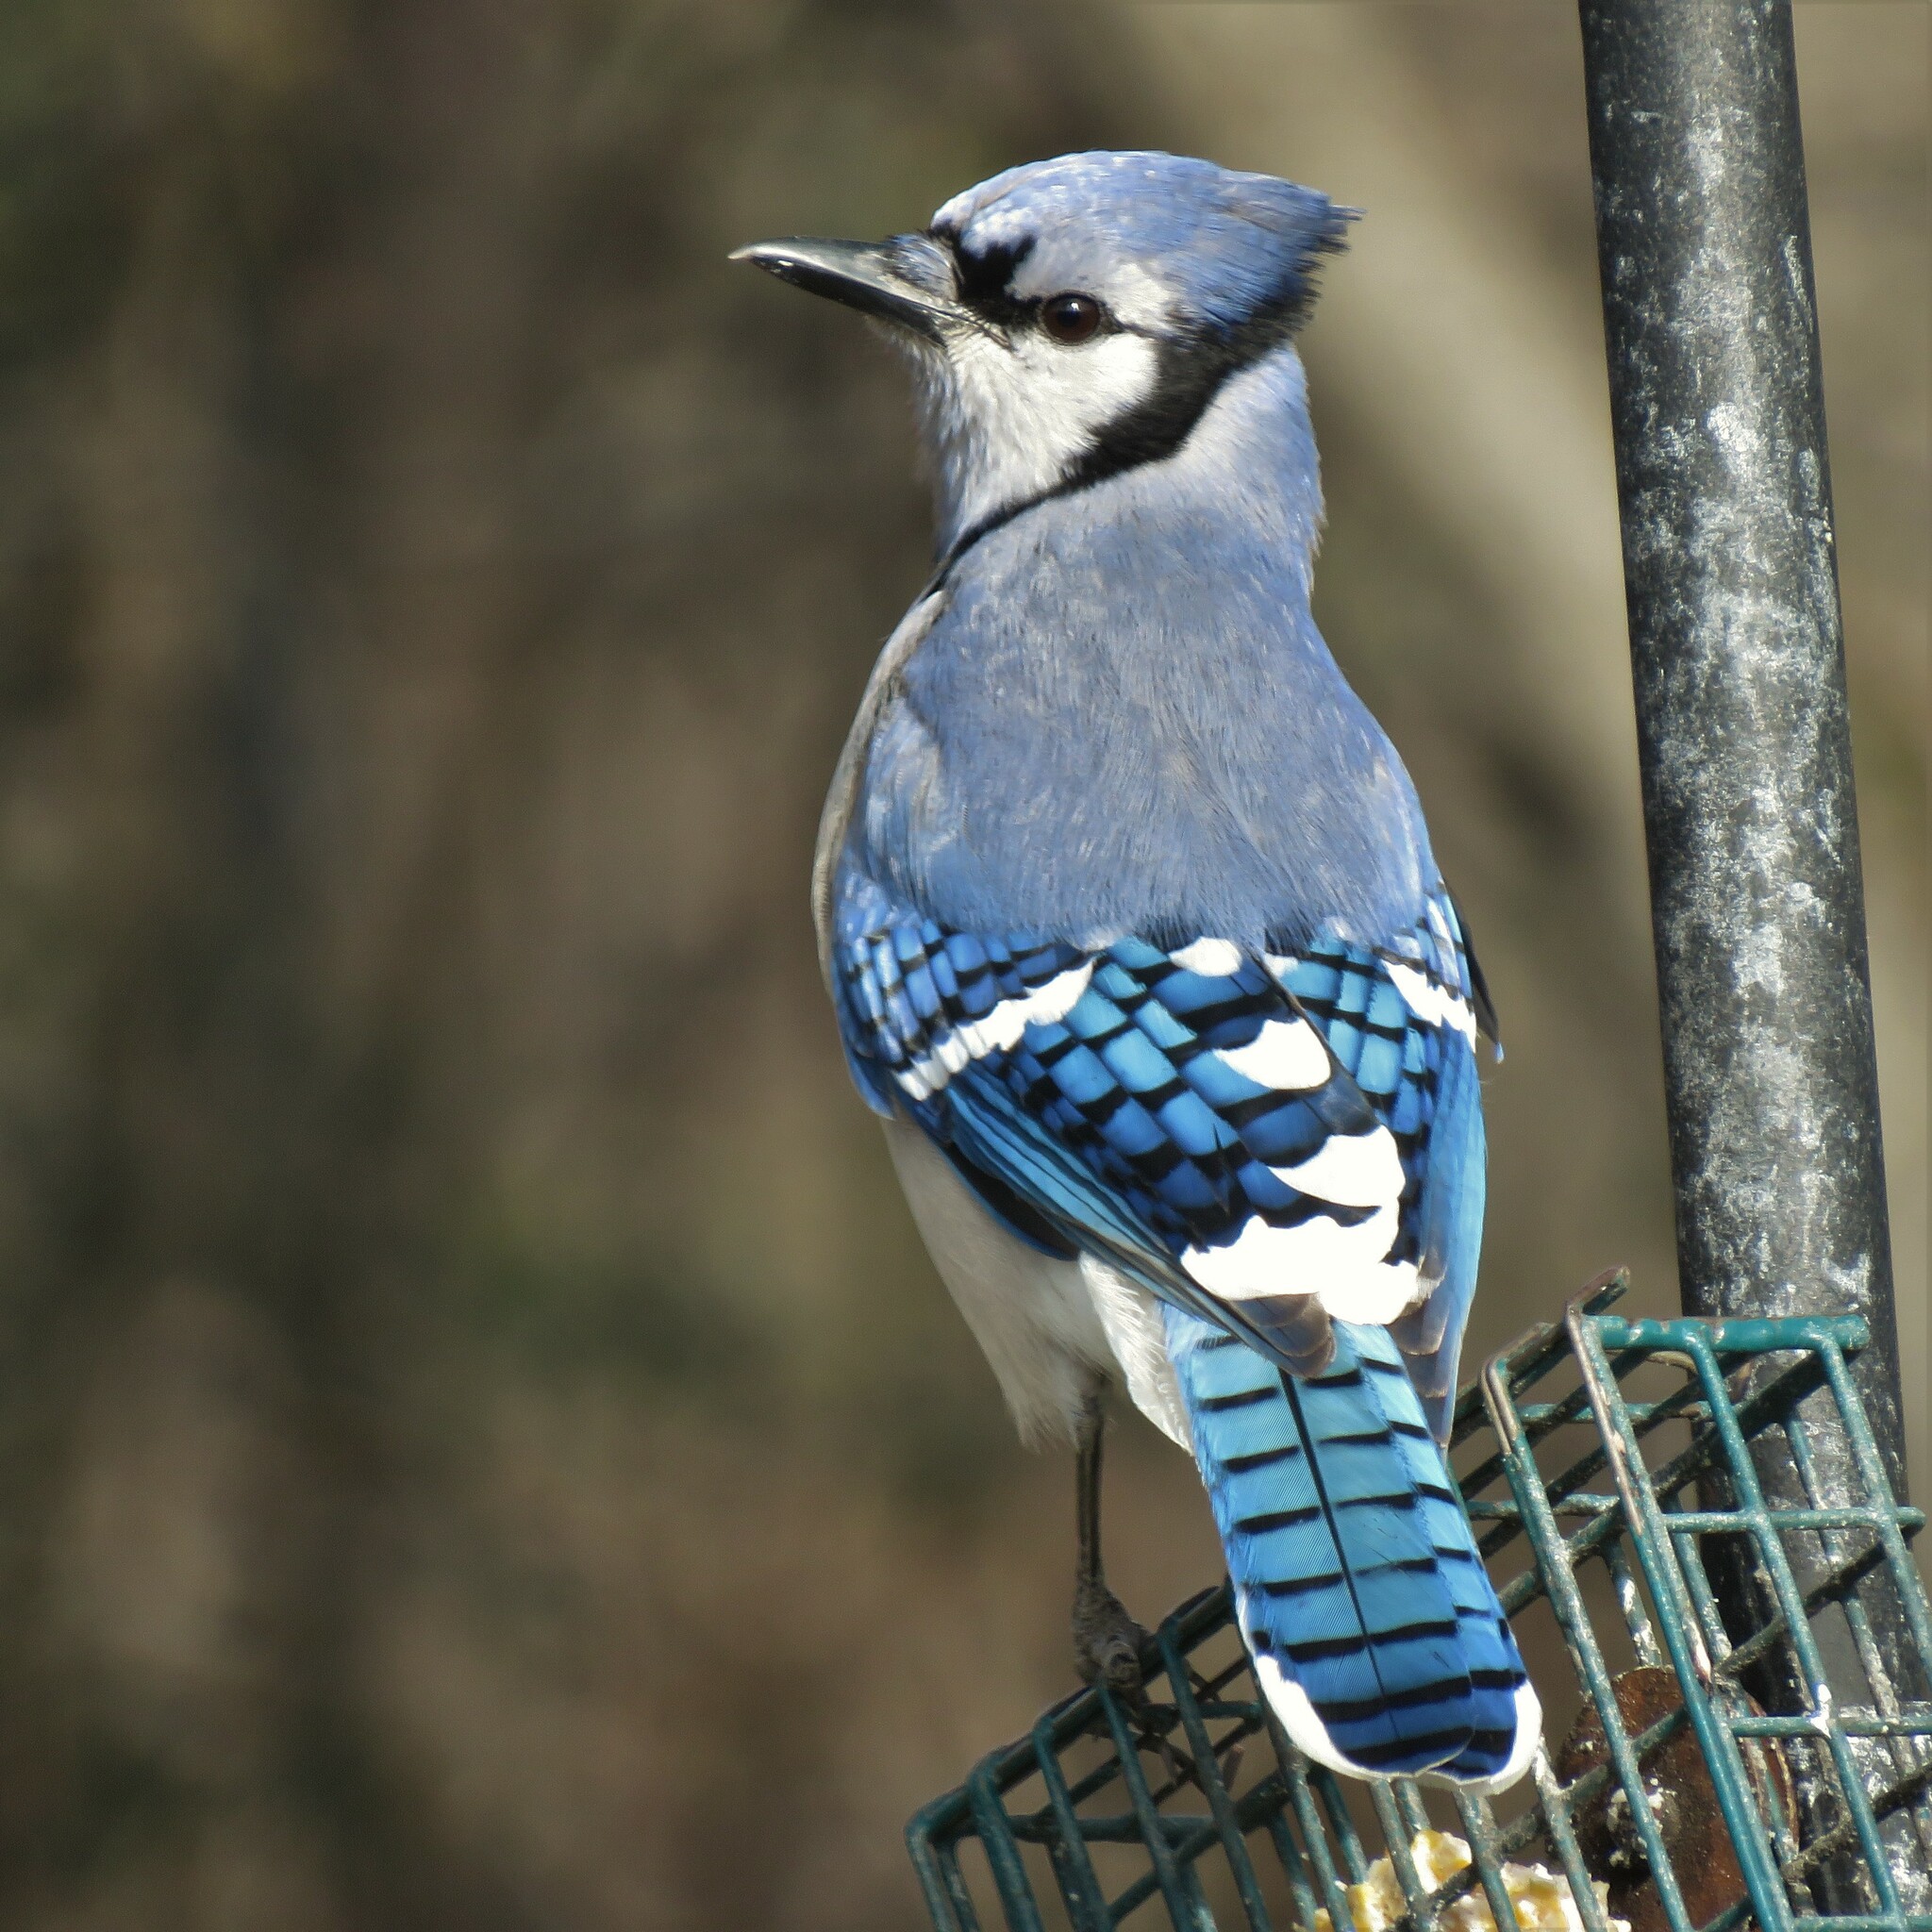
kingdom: Animalia
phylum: Chordata
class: Aves
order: Passeriformes
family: Corvidae
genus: Cyanocitta
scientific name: Cyanocitta cristata
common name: Blue jay
